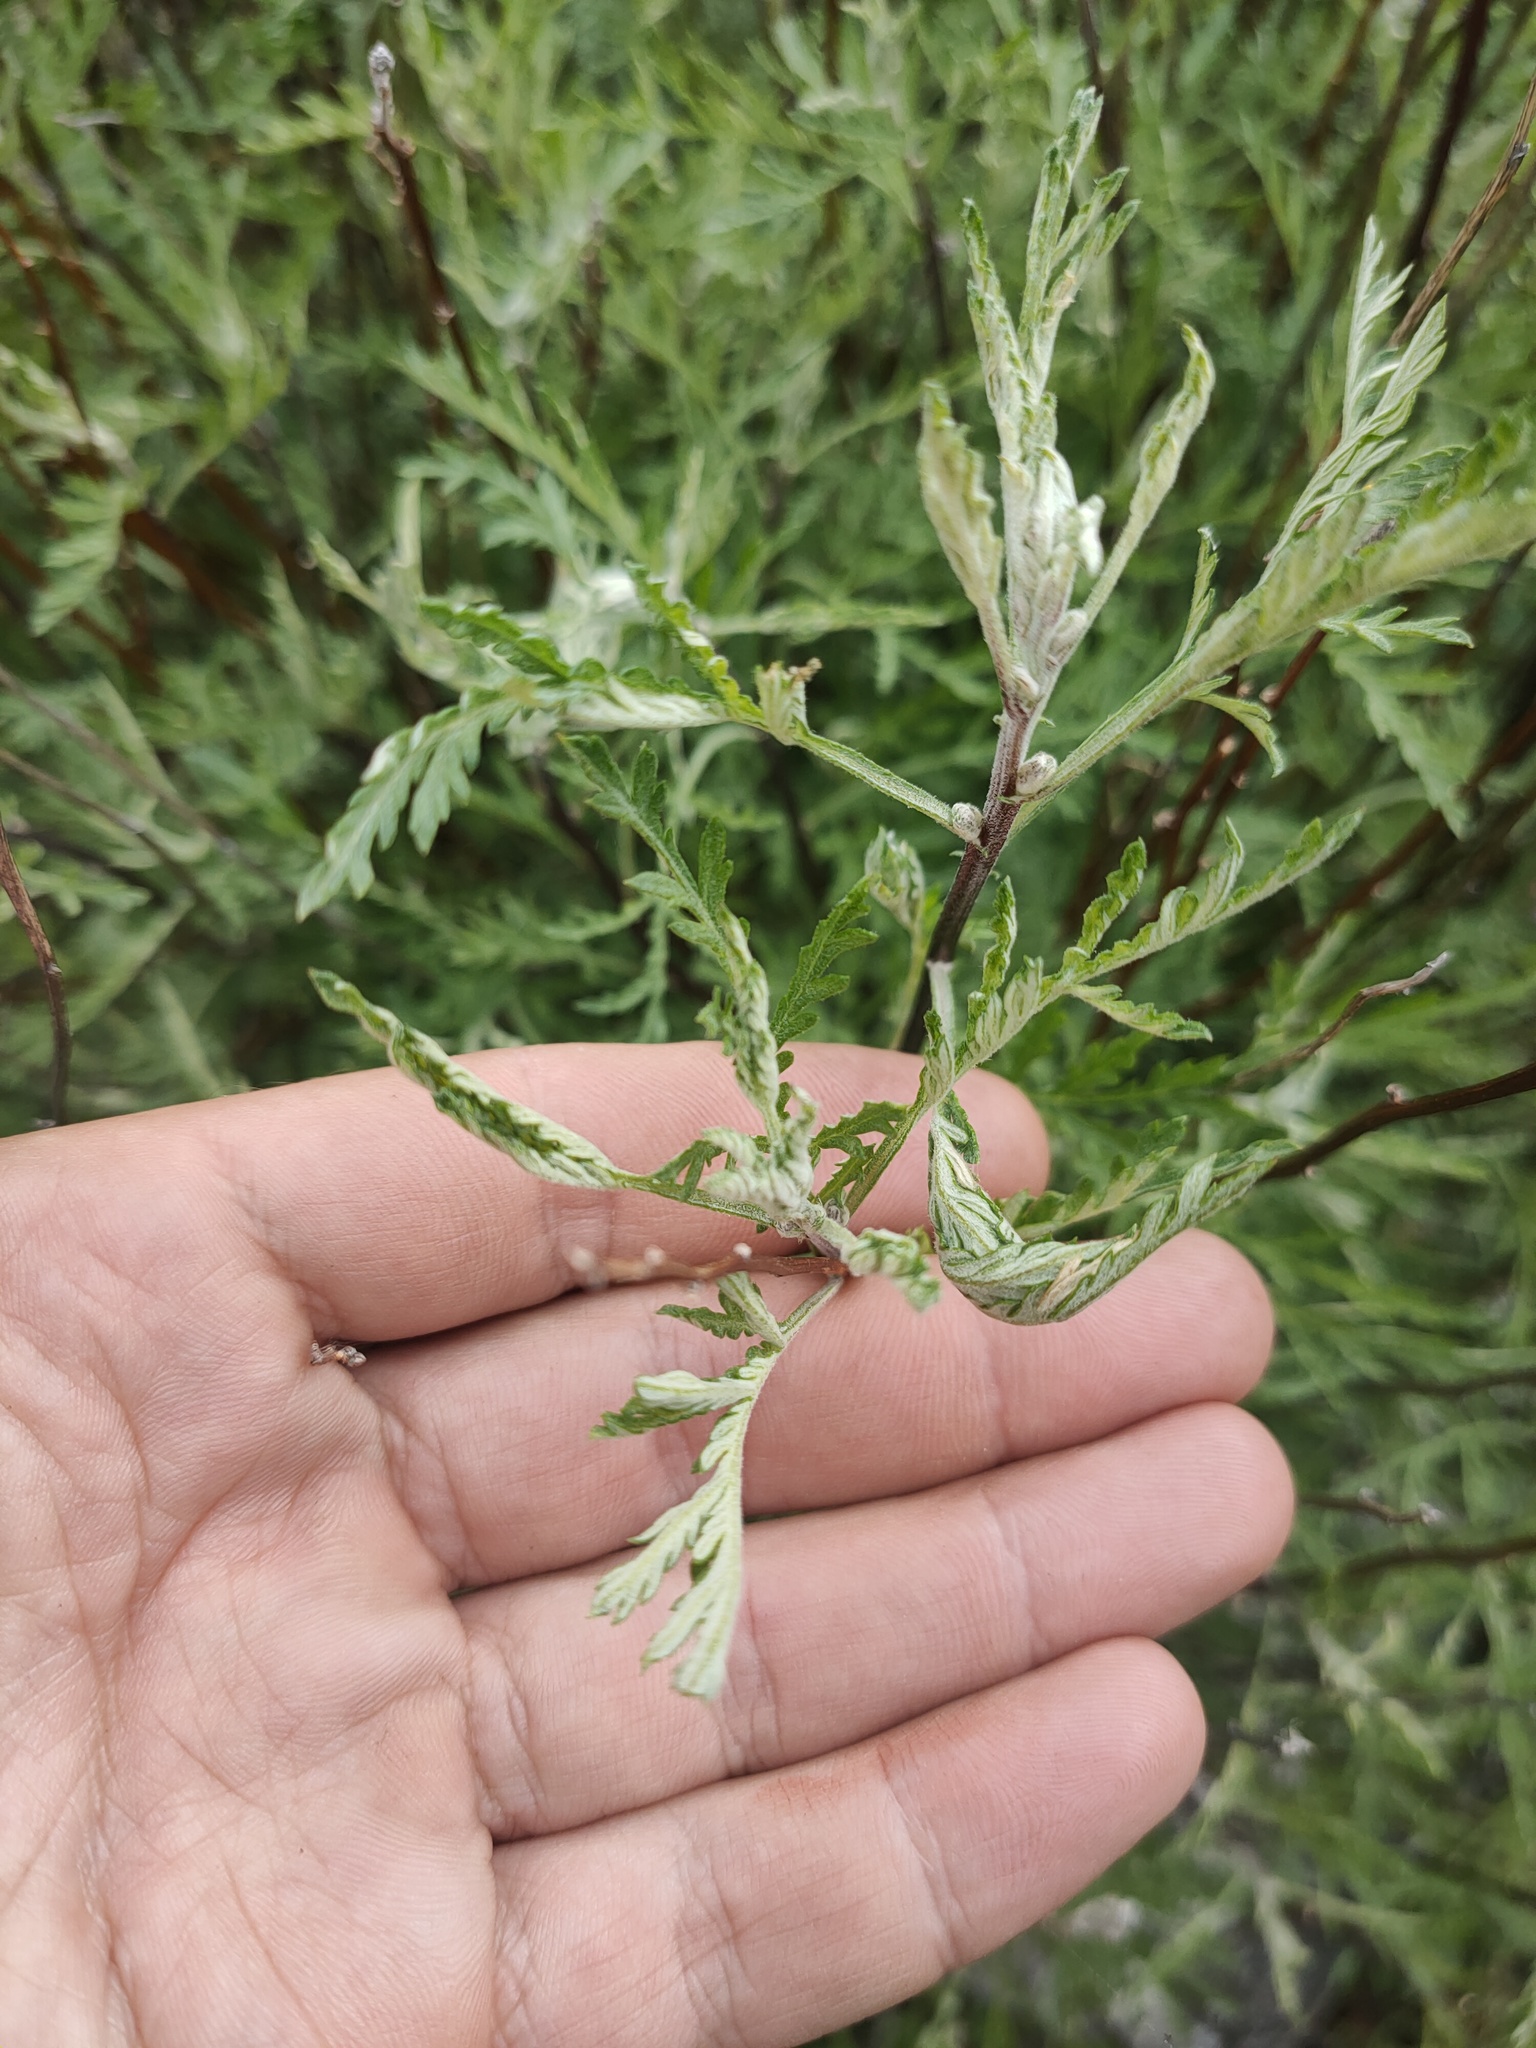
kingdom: Plantae
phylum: Tracheophyta
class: Magnoliopsida
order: Asterales
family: Asteraceae
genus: Artemisia
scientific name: Artemisia gmelinii
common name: Gmelin's wormwood
